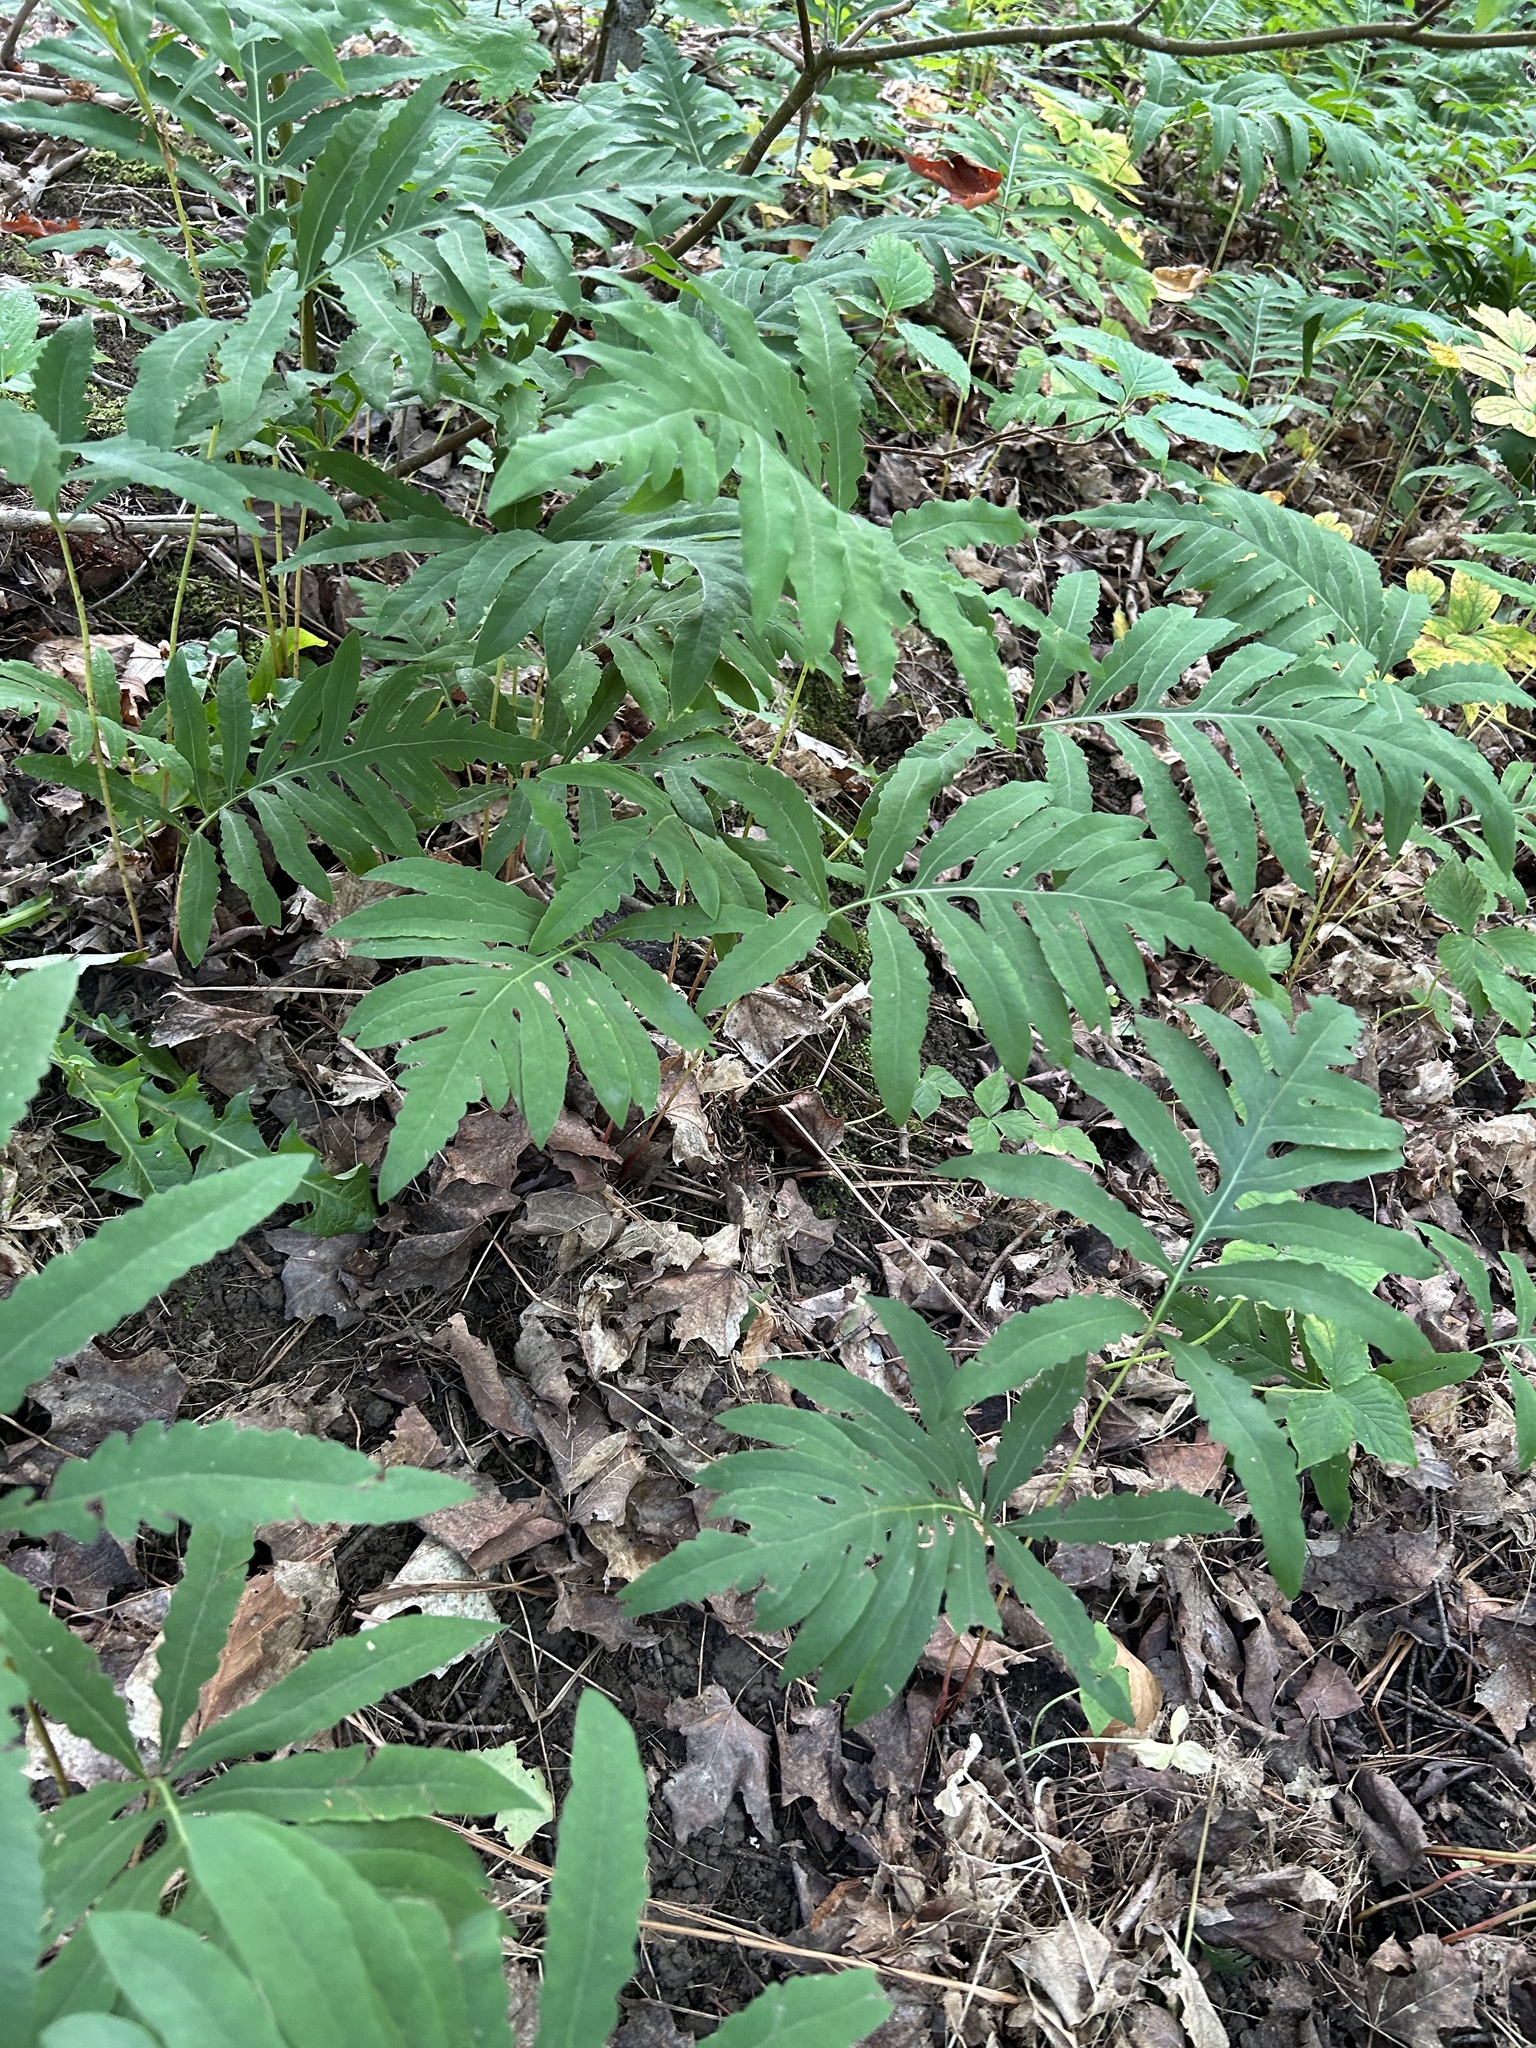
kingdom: Plantae
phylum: Tracheophyta
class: Polypodiopsida
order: Polypodiales
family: Onocleaceae
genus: Onoclea
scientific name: Onoclea sensibilis
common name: Sensitive fern
